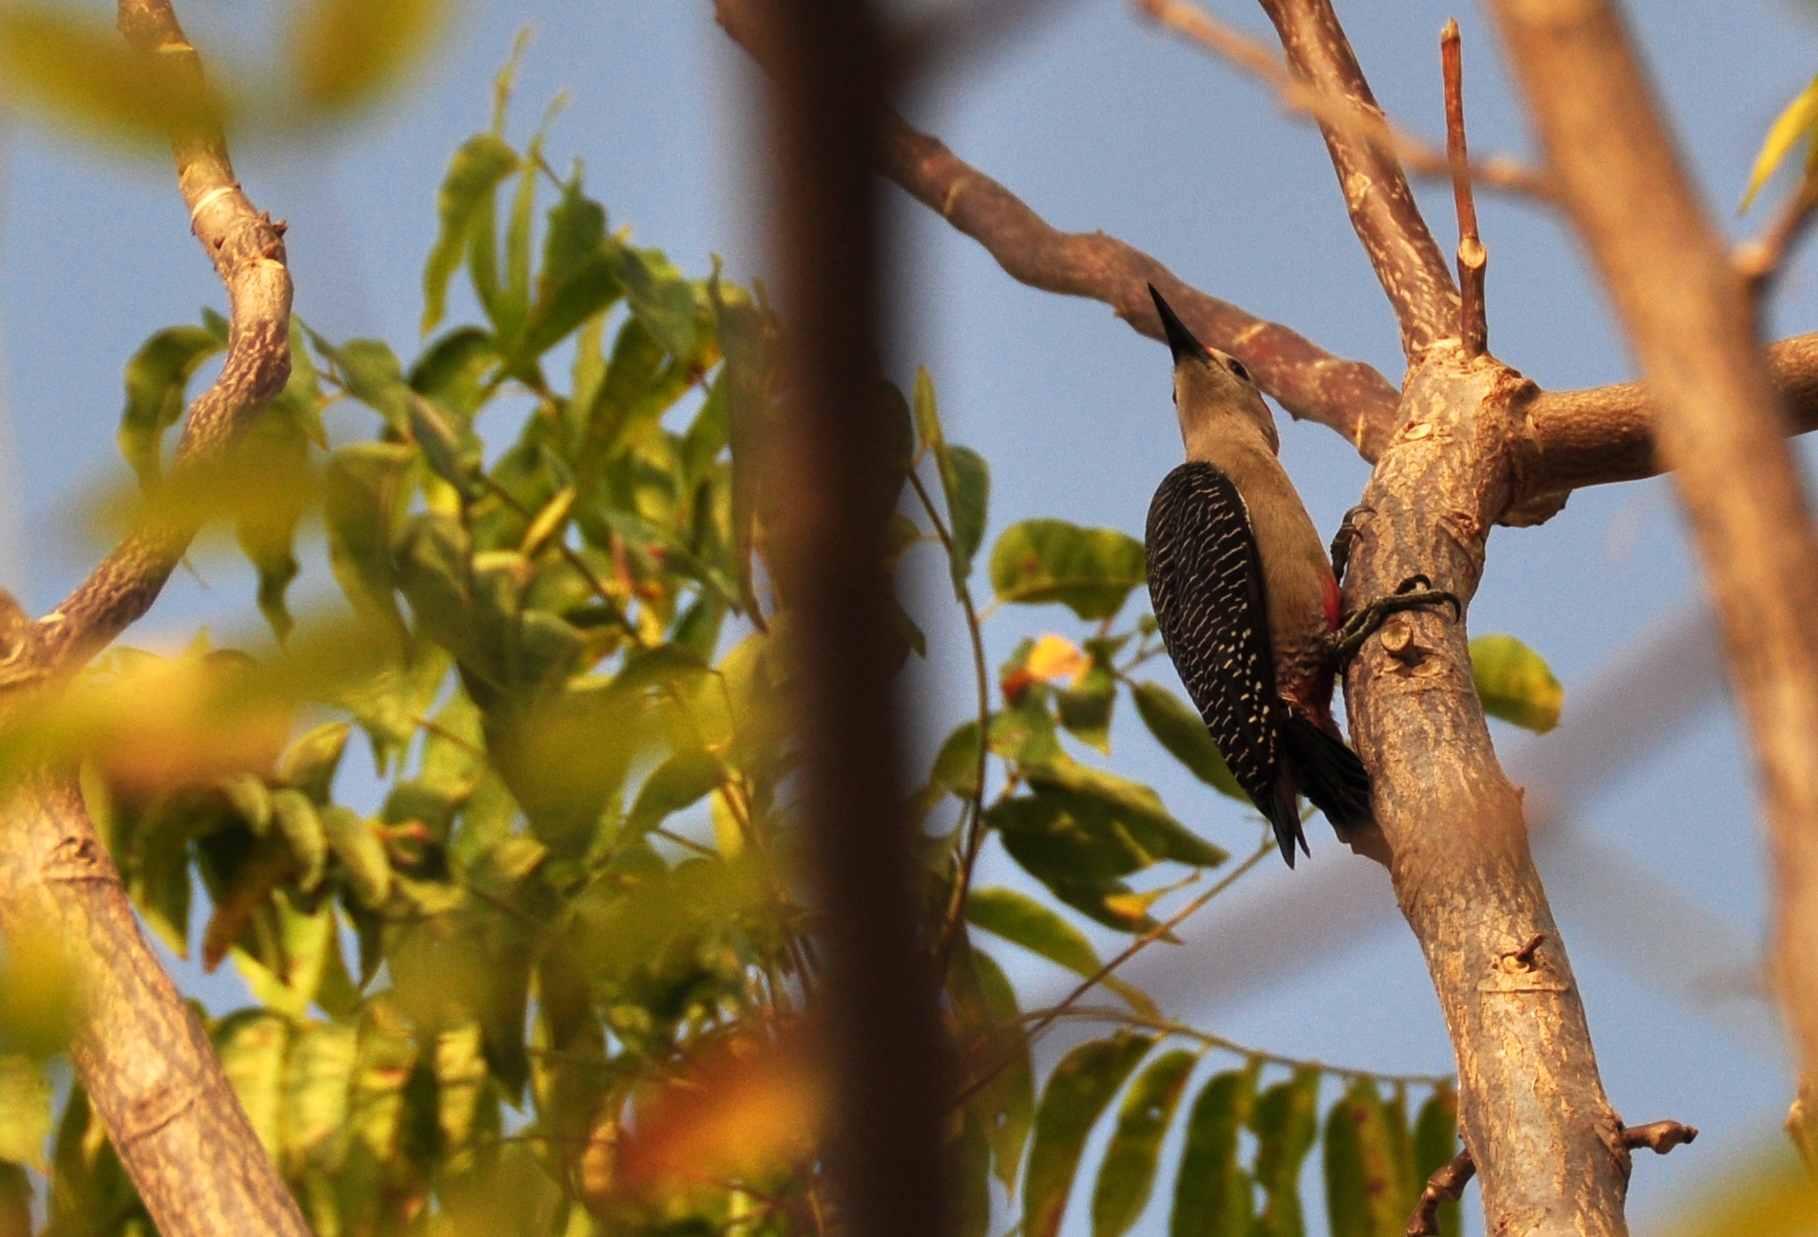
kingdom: Animalia
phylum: Chordata
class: Aves
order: Piciformes
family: Picidae
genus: Melanerpes
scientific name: Melanerpes aurifrons
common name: Golden-fronted woodpecker
